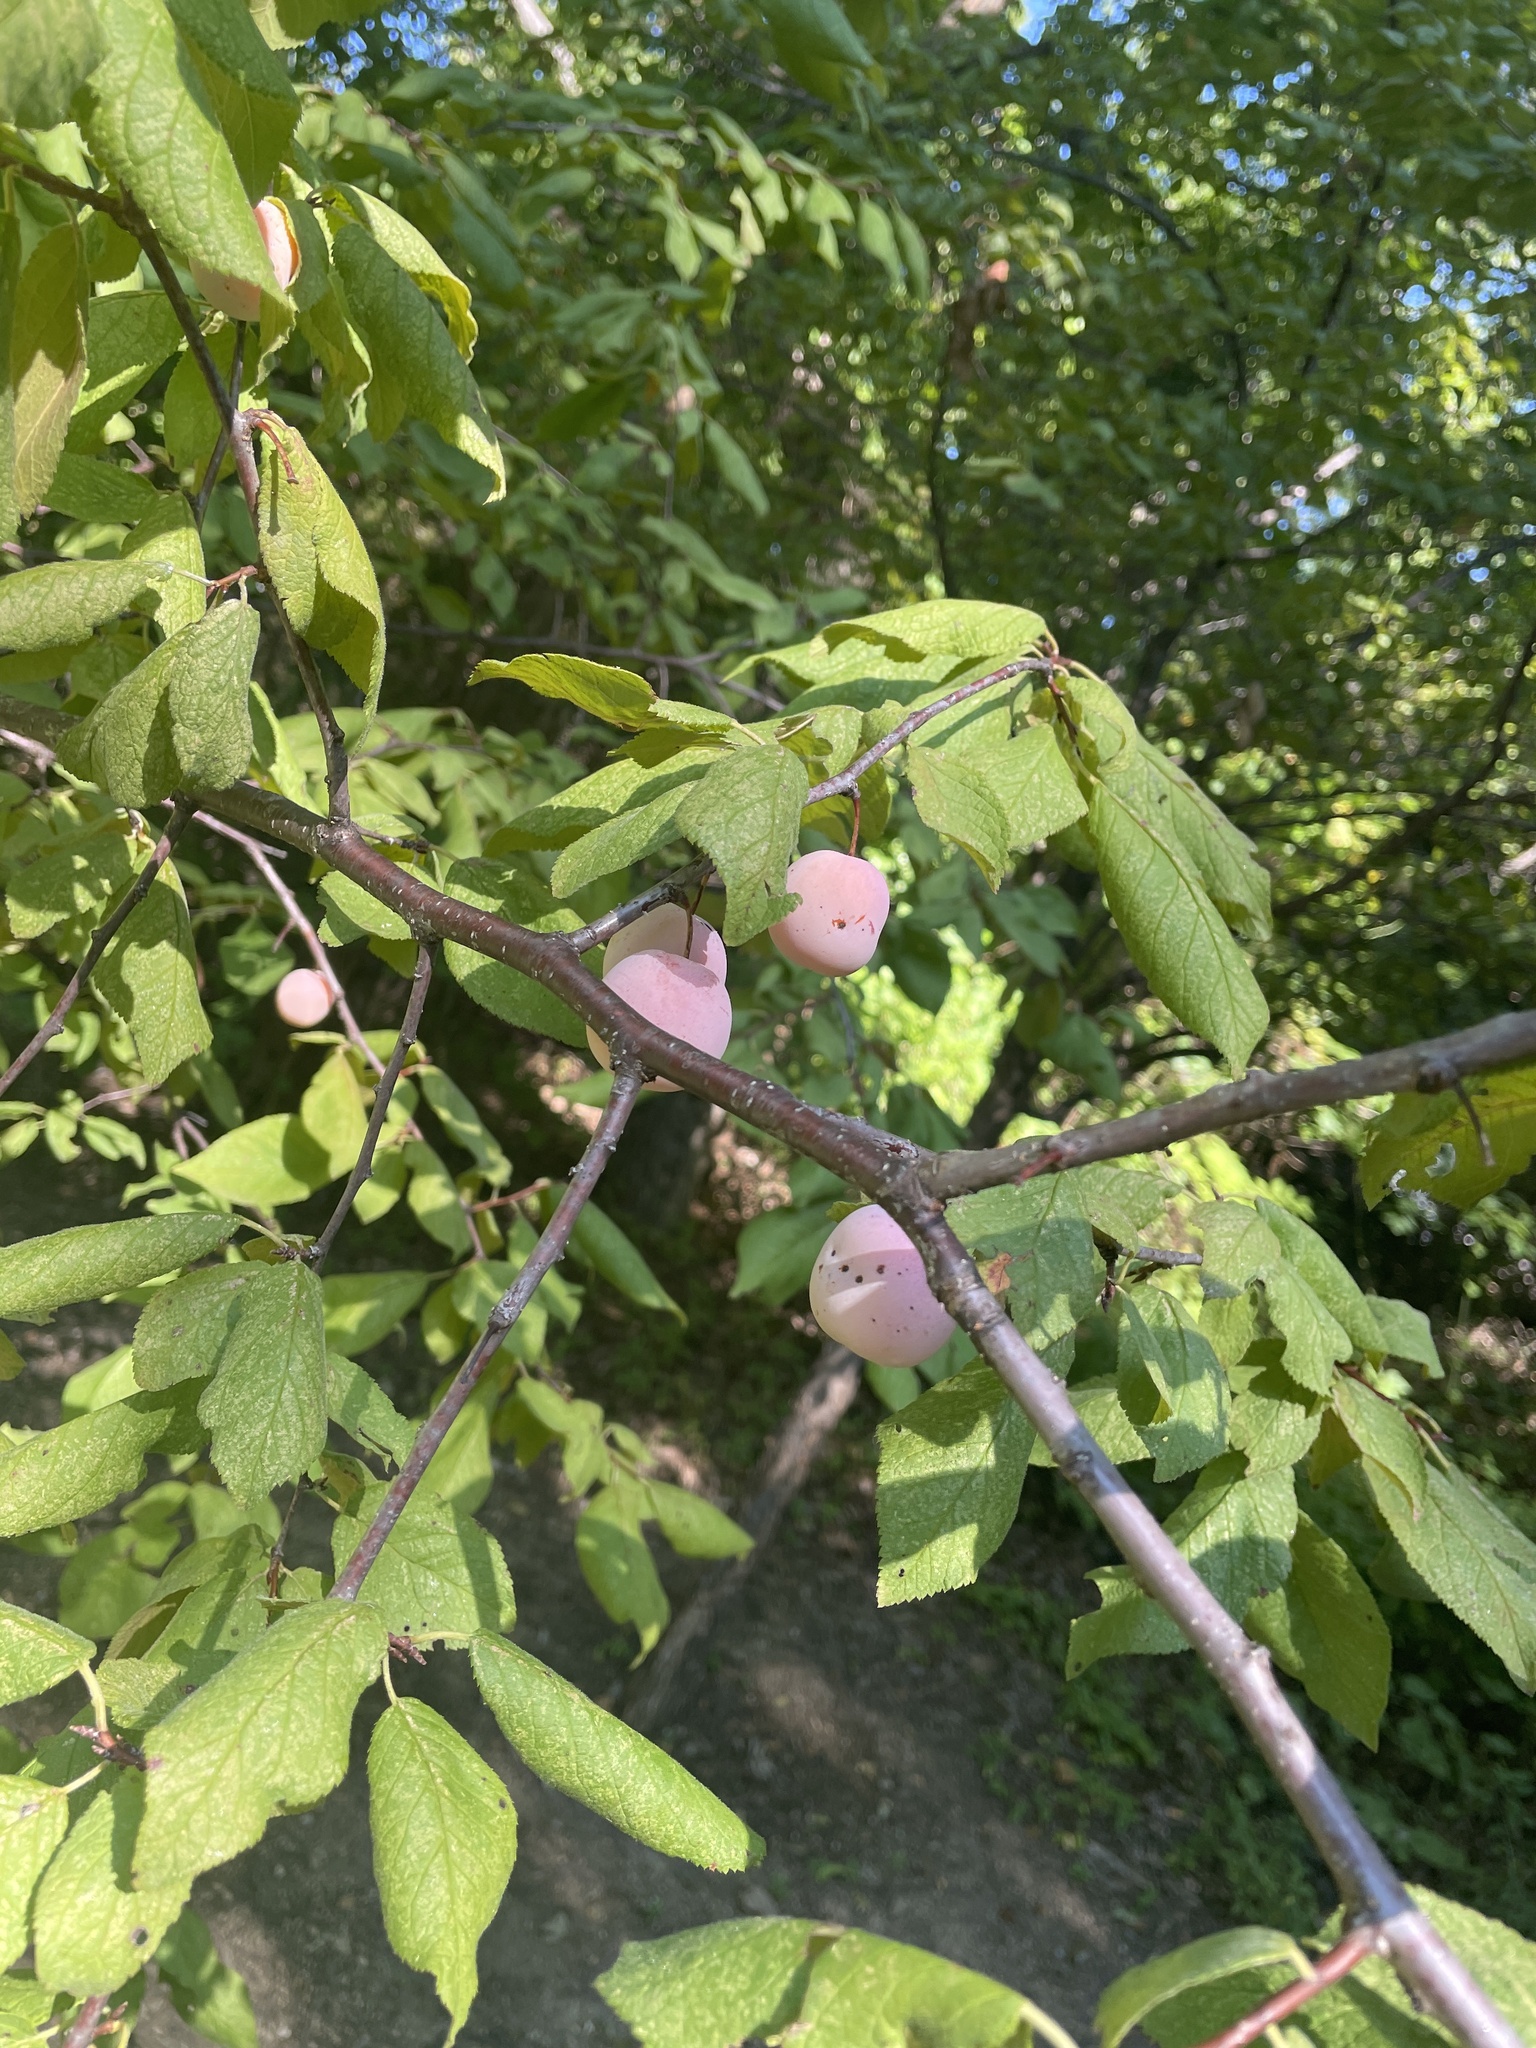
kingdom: Plantae
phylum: Tracheophyta
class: Magnoliopsida
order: Rosales
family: Rosaceae
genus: Prunus
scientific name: Prunus mexicana
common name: Mexican plum
